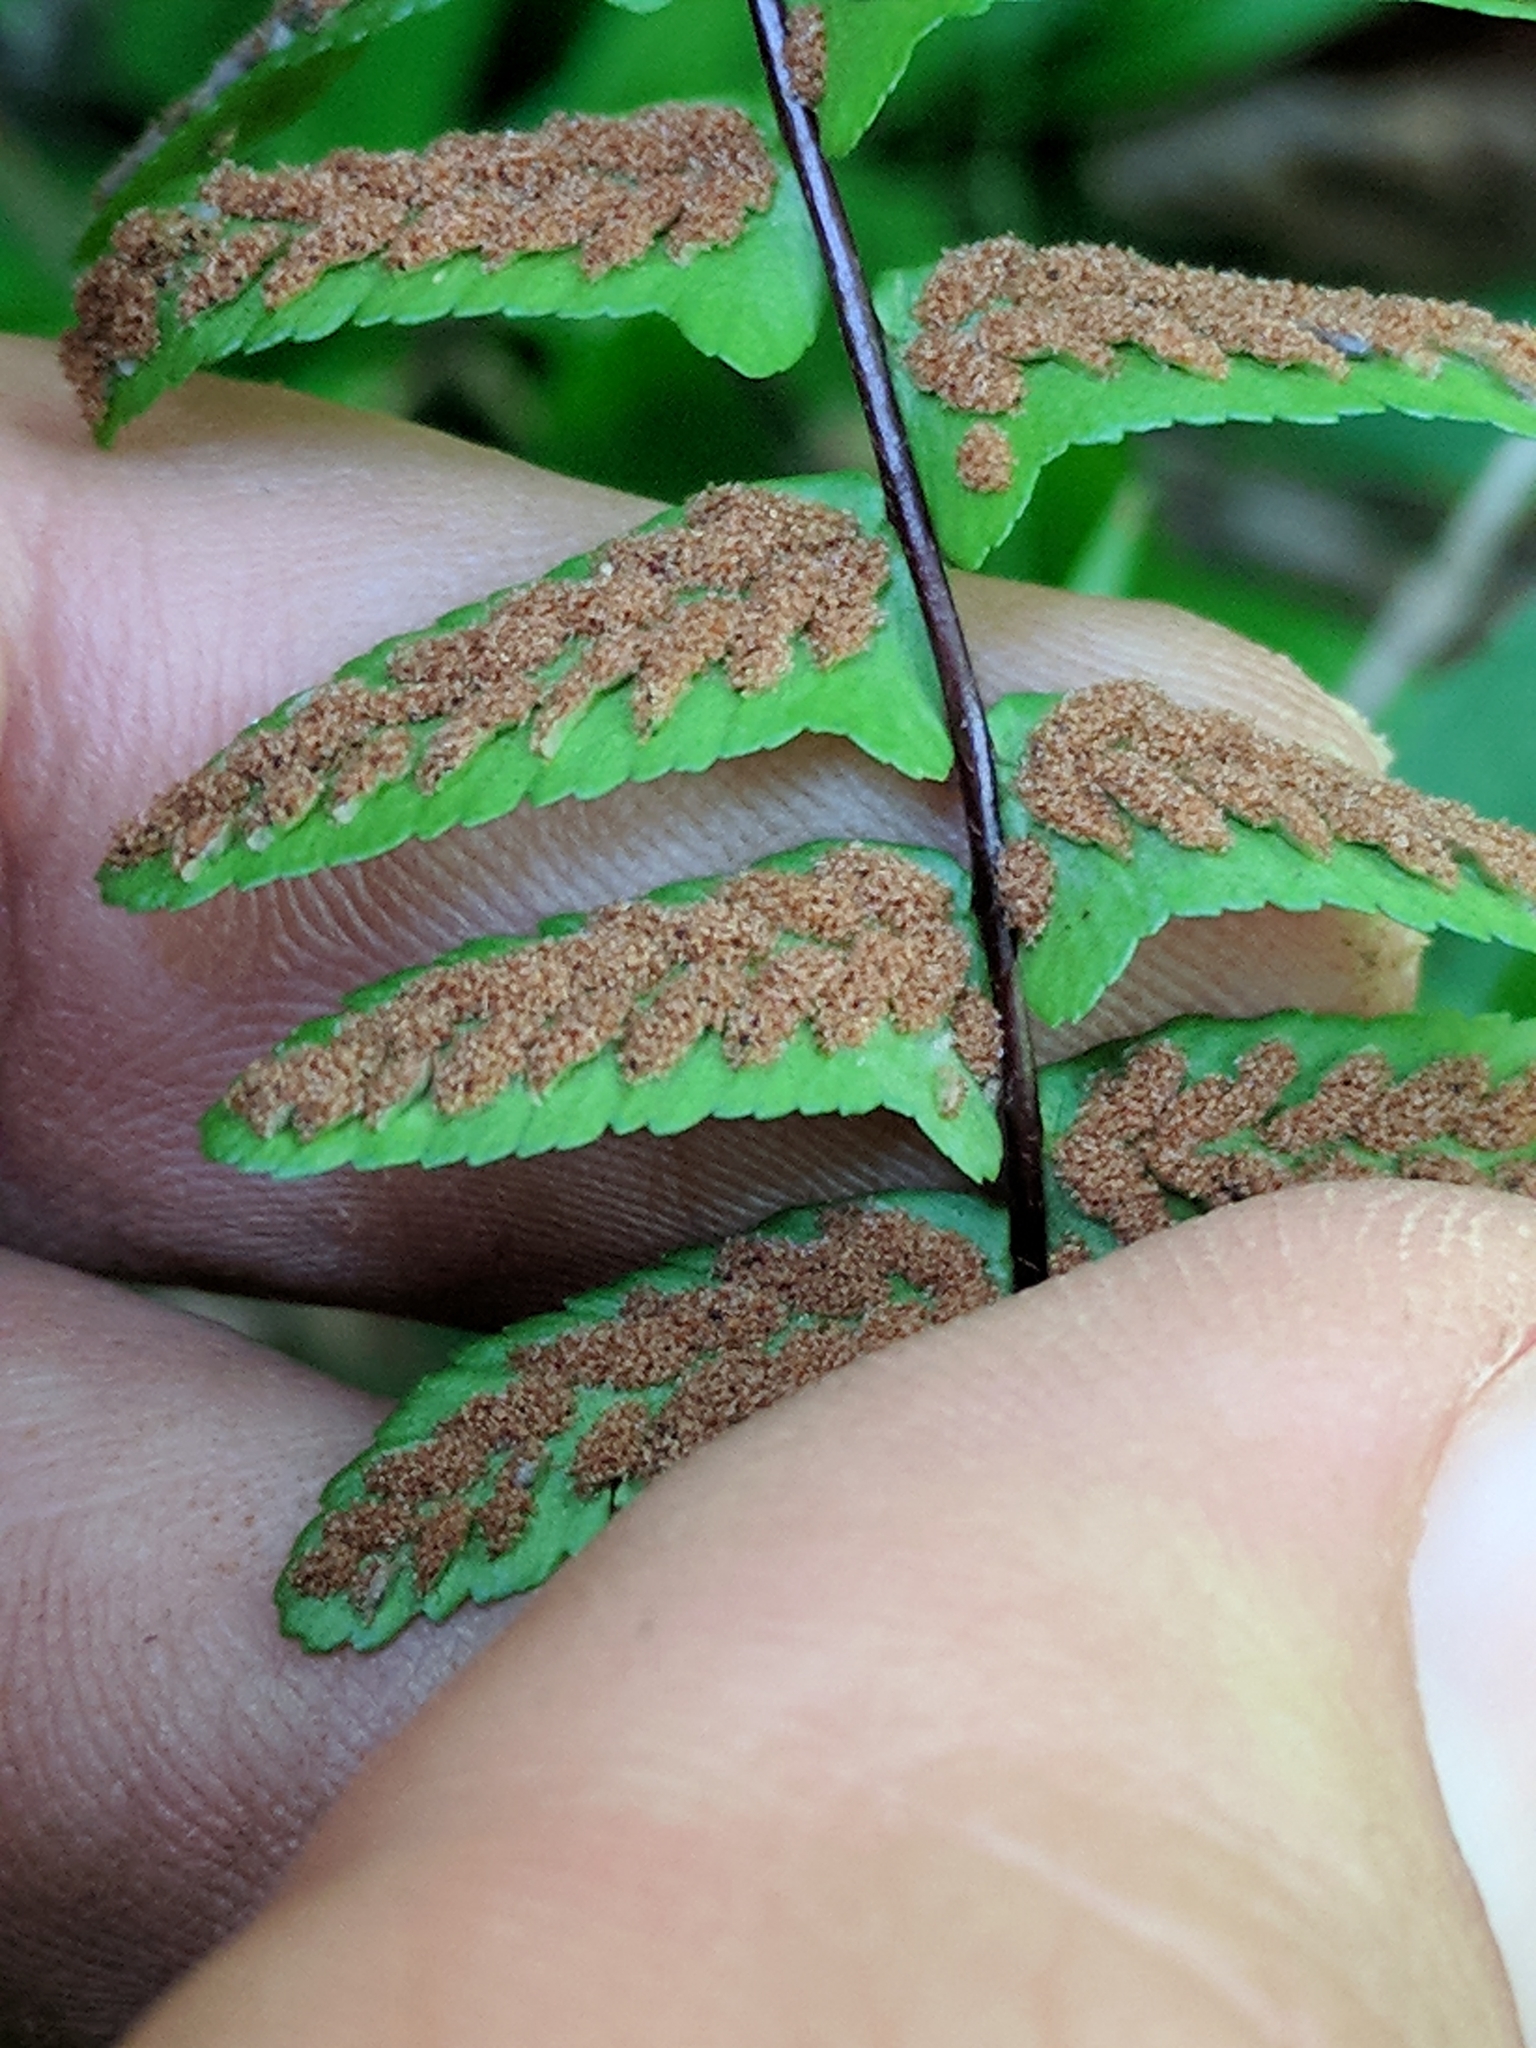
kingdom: Plantae
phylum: Tracheophyta
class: Polypodiopsida
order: Polypodiales
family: Aspleniaceae
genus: Asplenium
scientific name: Asplenium platyneuron
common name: Ebony spleenwort
